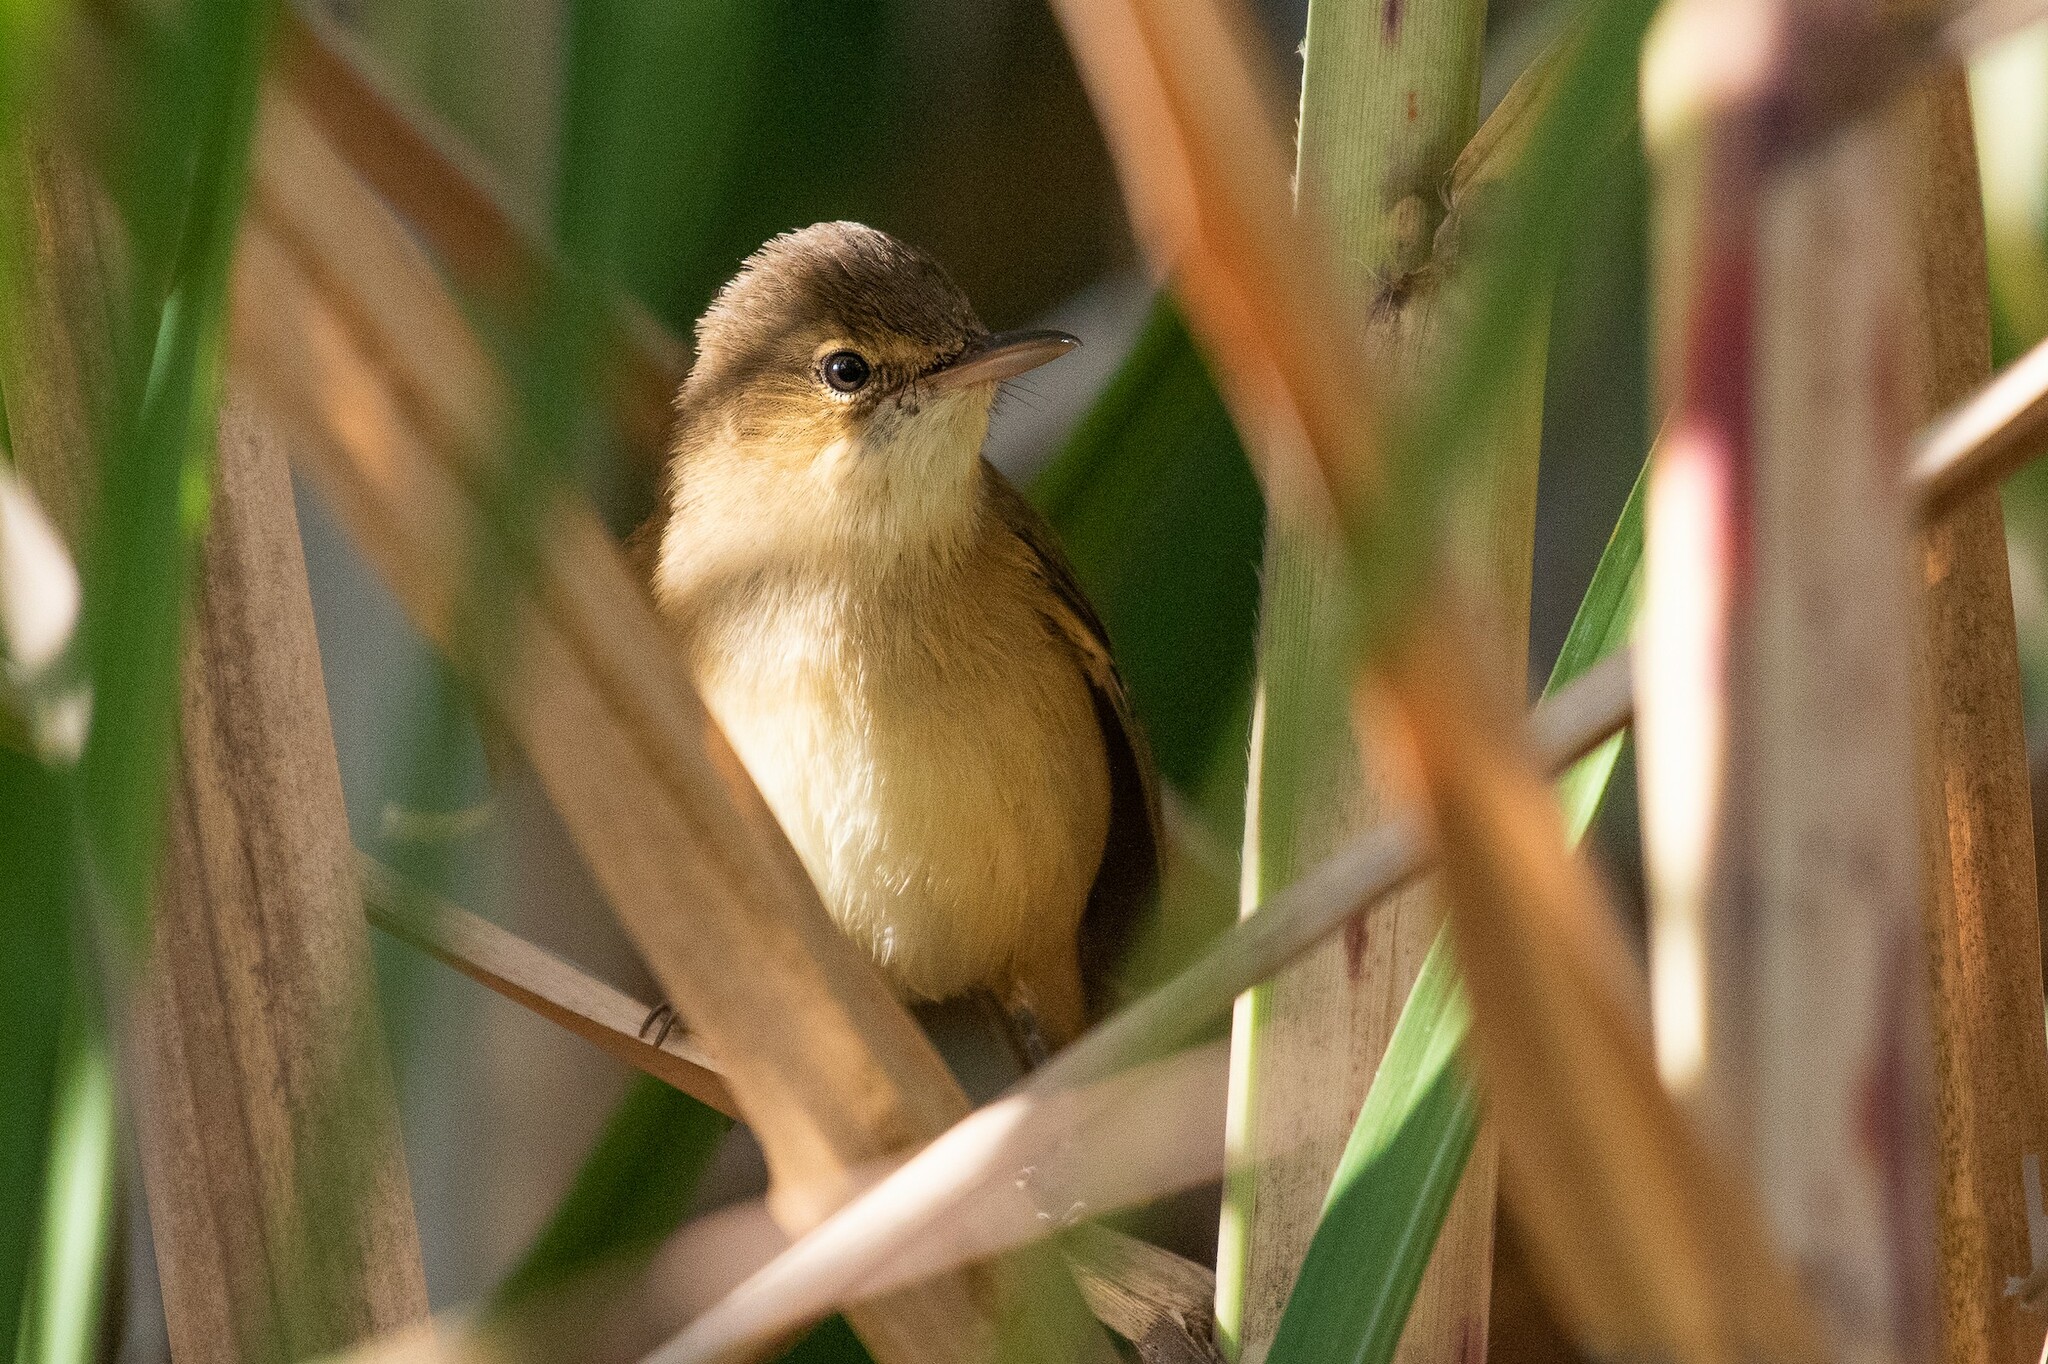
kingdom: Animalia
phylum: Chordata
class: Aves
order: Passeriformes
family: Acrocephalidae
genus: Acrocephalus
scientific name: Acrocephalus australis
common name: Australian reed warbler
